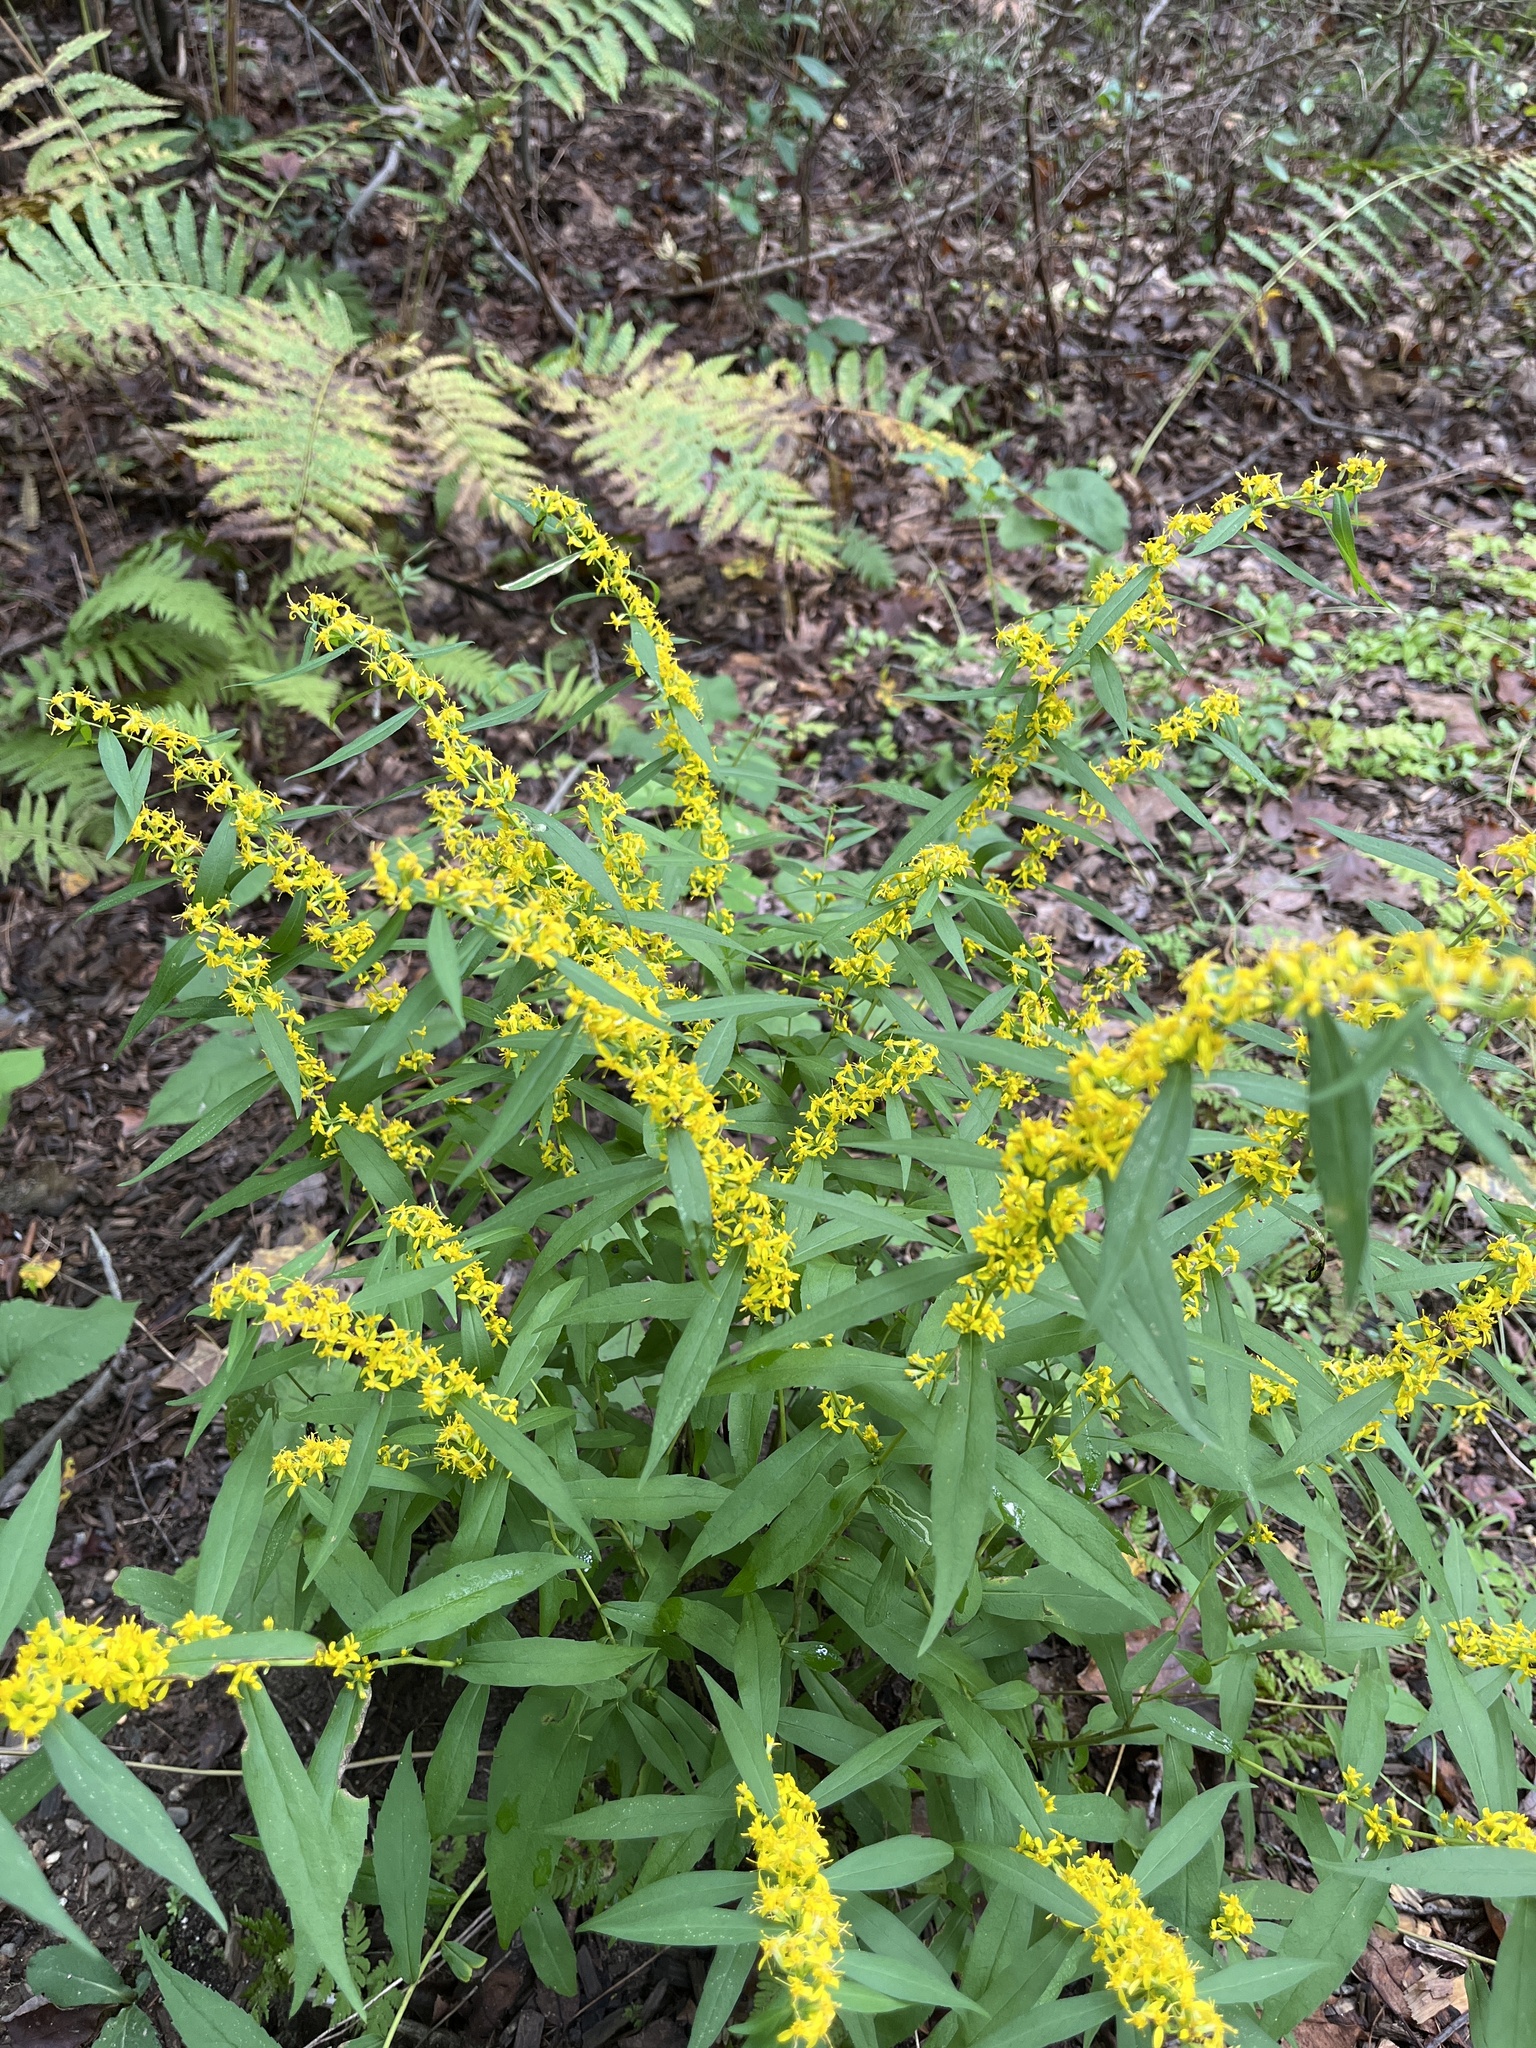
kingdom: Plantae
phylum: Tracheophyta
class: Magnoliopsida
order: Asterales
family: Asteraceae
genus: Solidago
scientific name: Solidago caesia
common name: Woodland goldenrod
